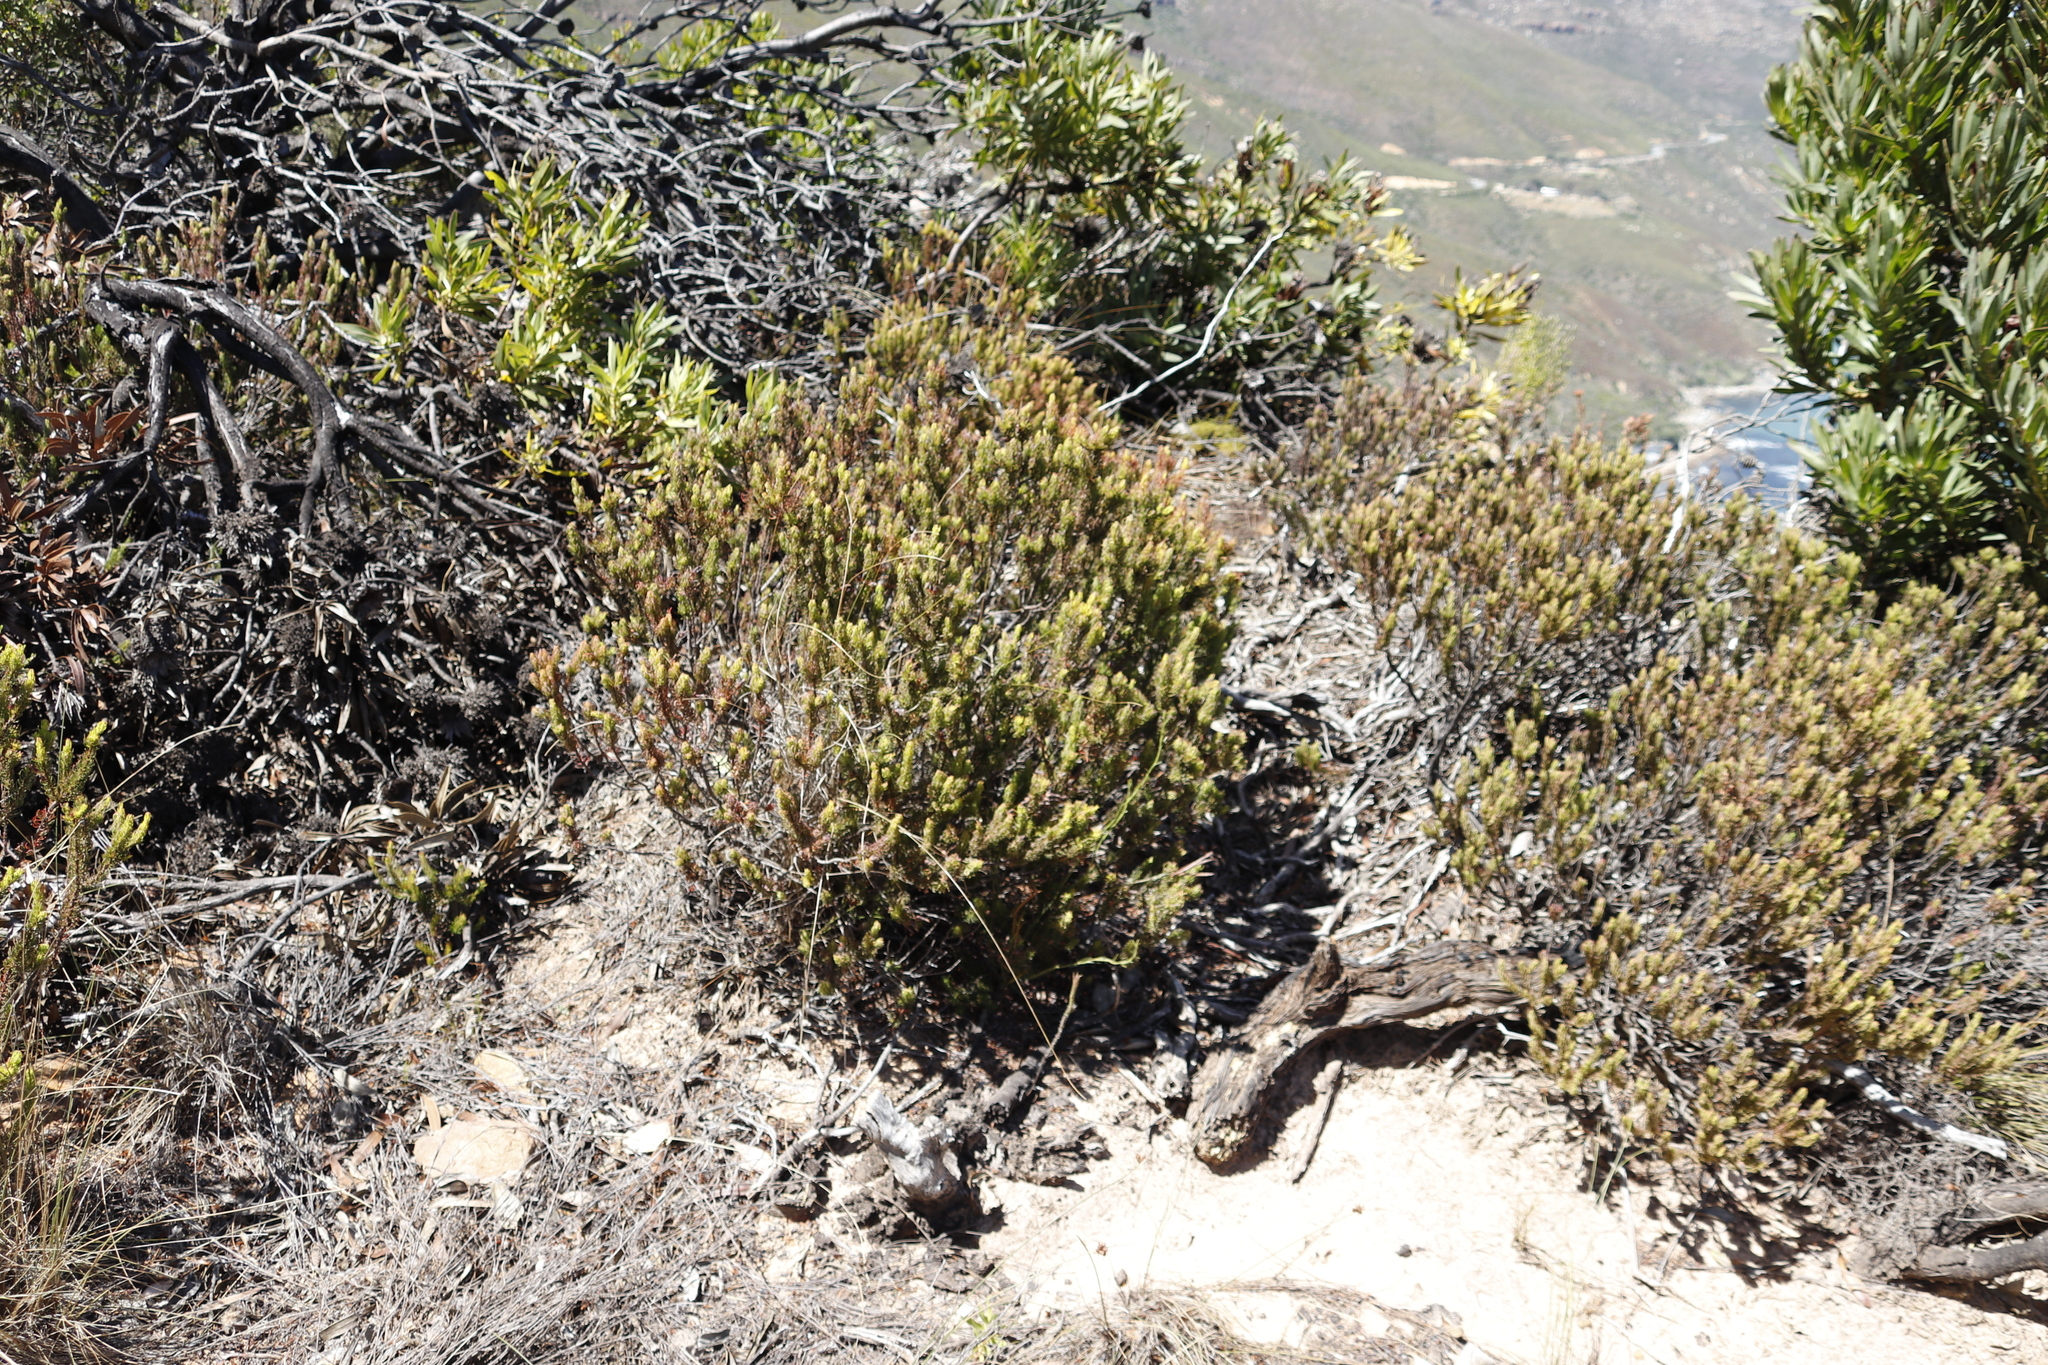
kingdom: Plantae
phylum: Tracheophyta
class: Magnoliopsida
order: Ericales
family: Ericaceae
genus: Erica
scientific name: Erica plukenetii
